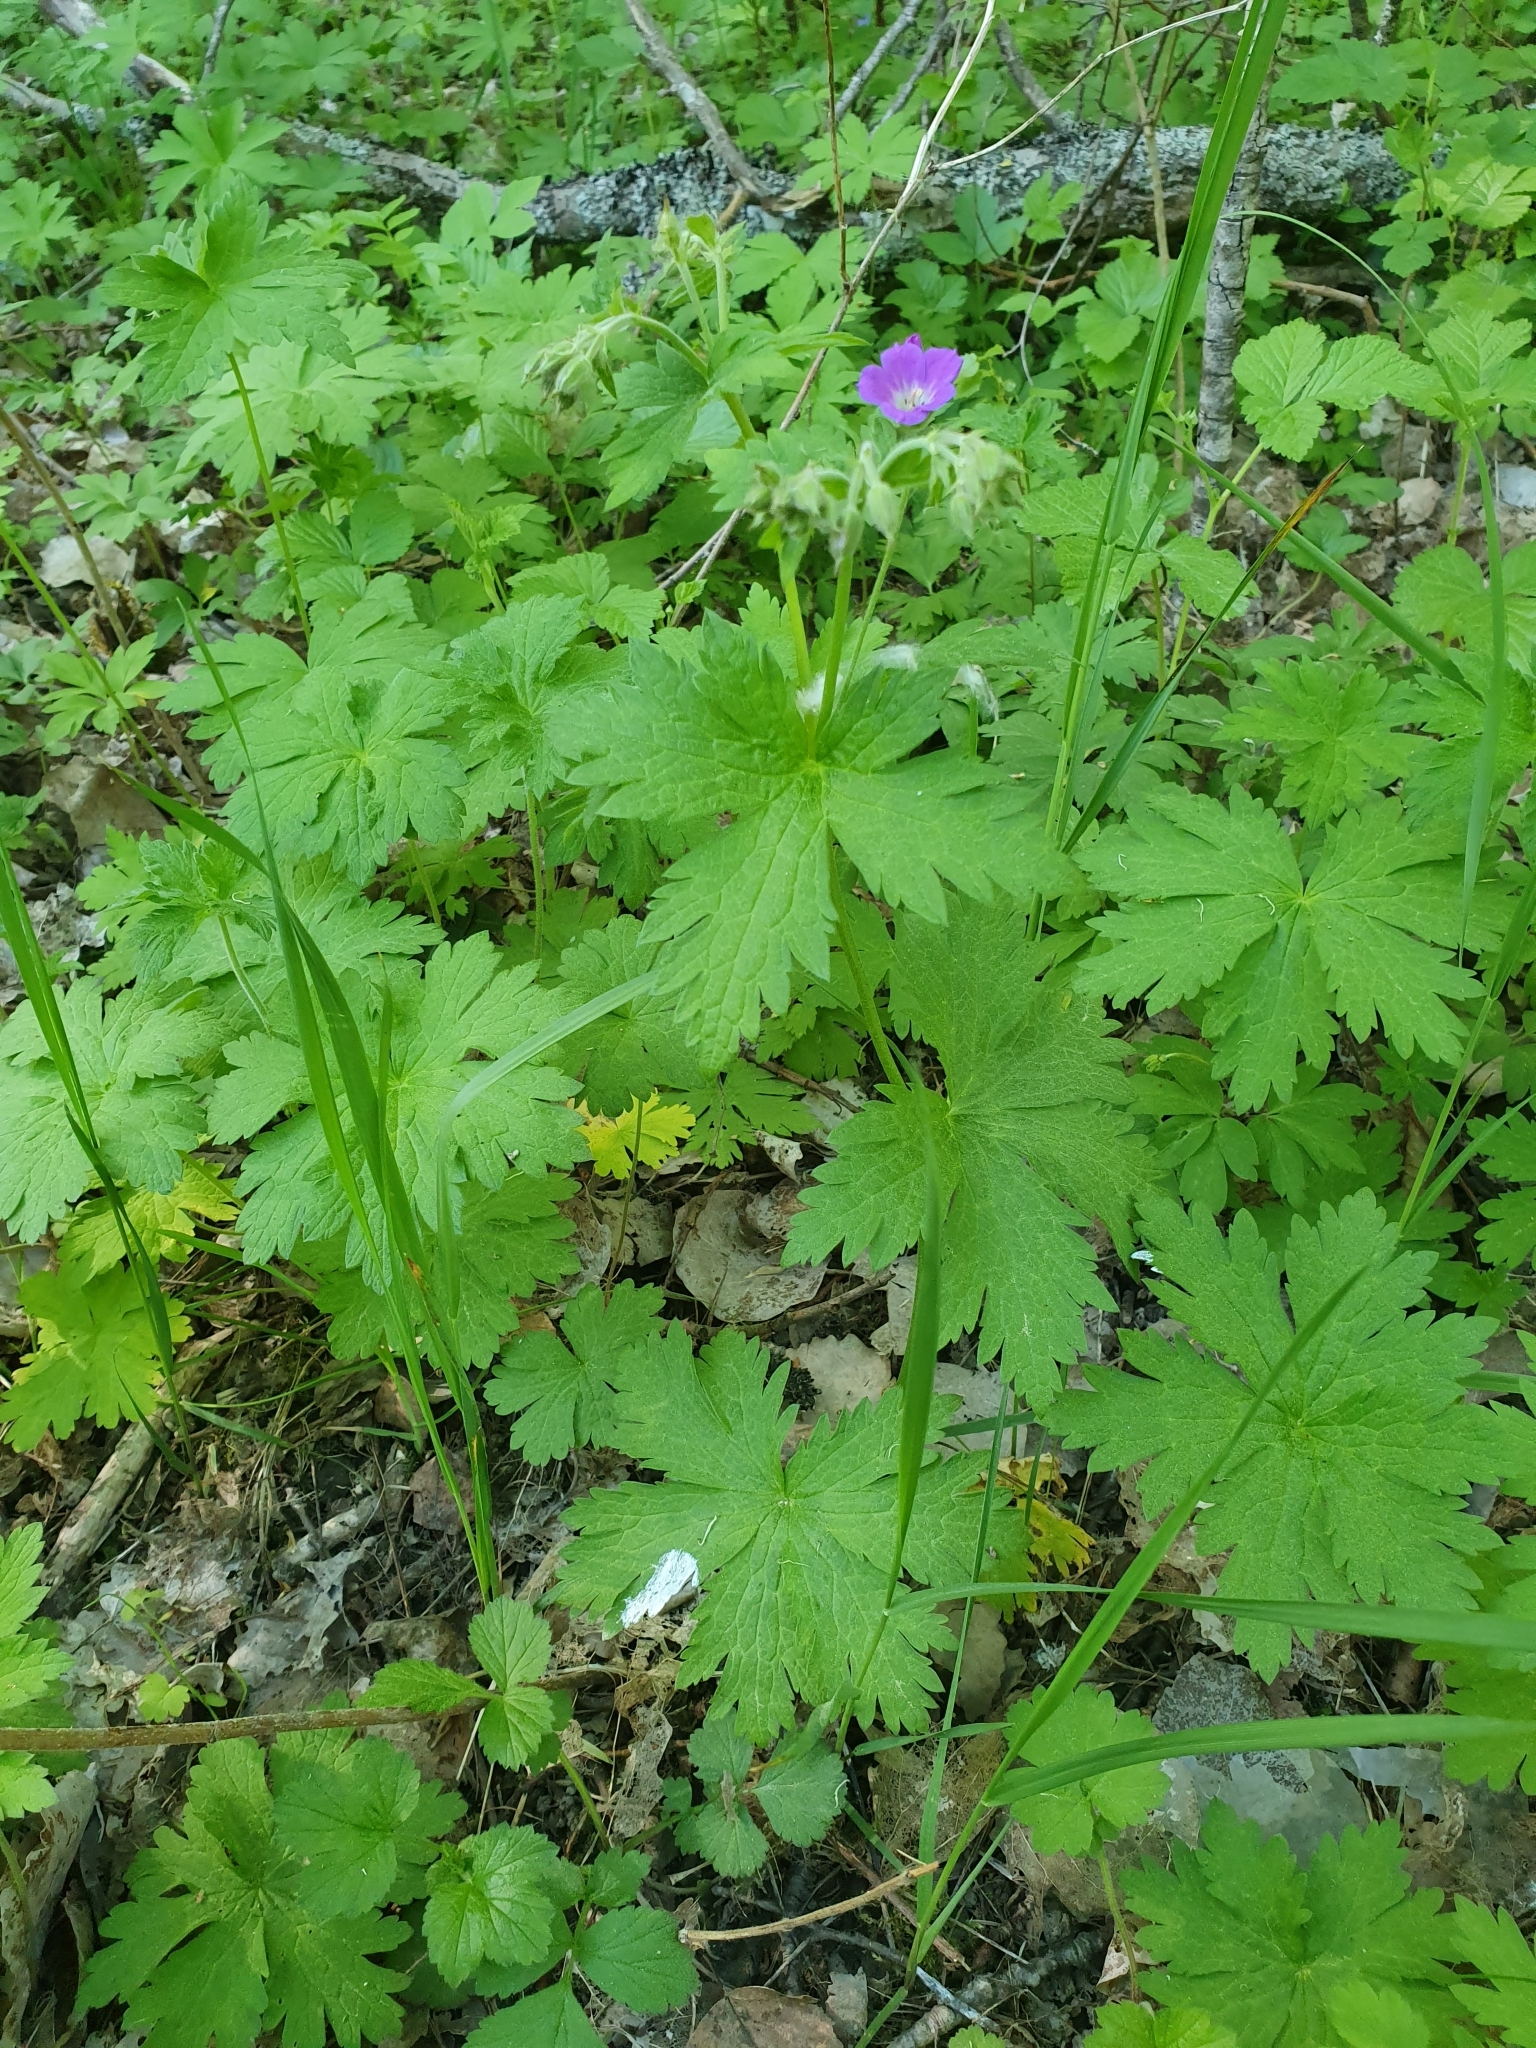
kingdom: Plantae
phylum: Tracheophyta
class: Magnoliopsida
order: Geraniales
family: Geraniaceae
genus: Geranium
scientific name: Geranium sylvaticum
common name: Wood crane's-bill
